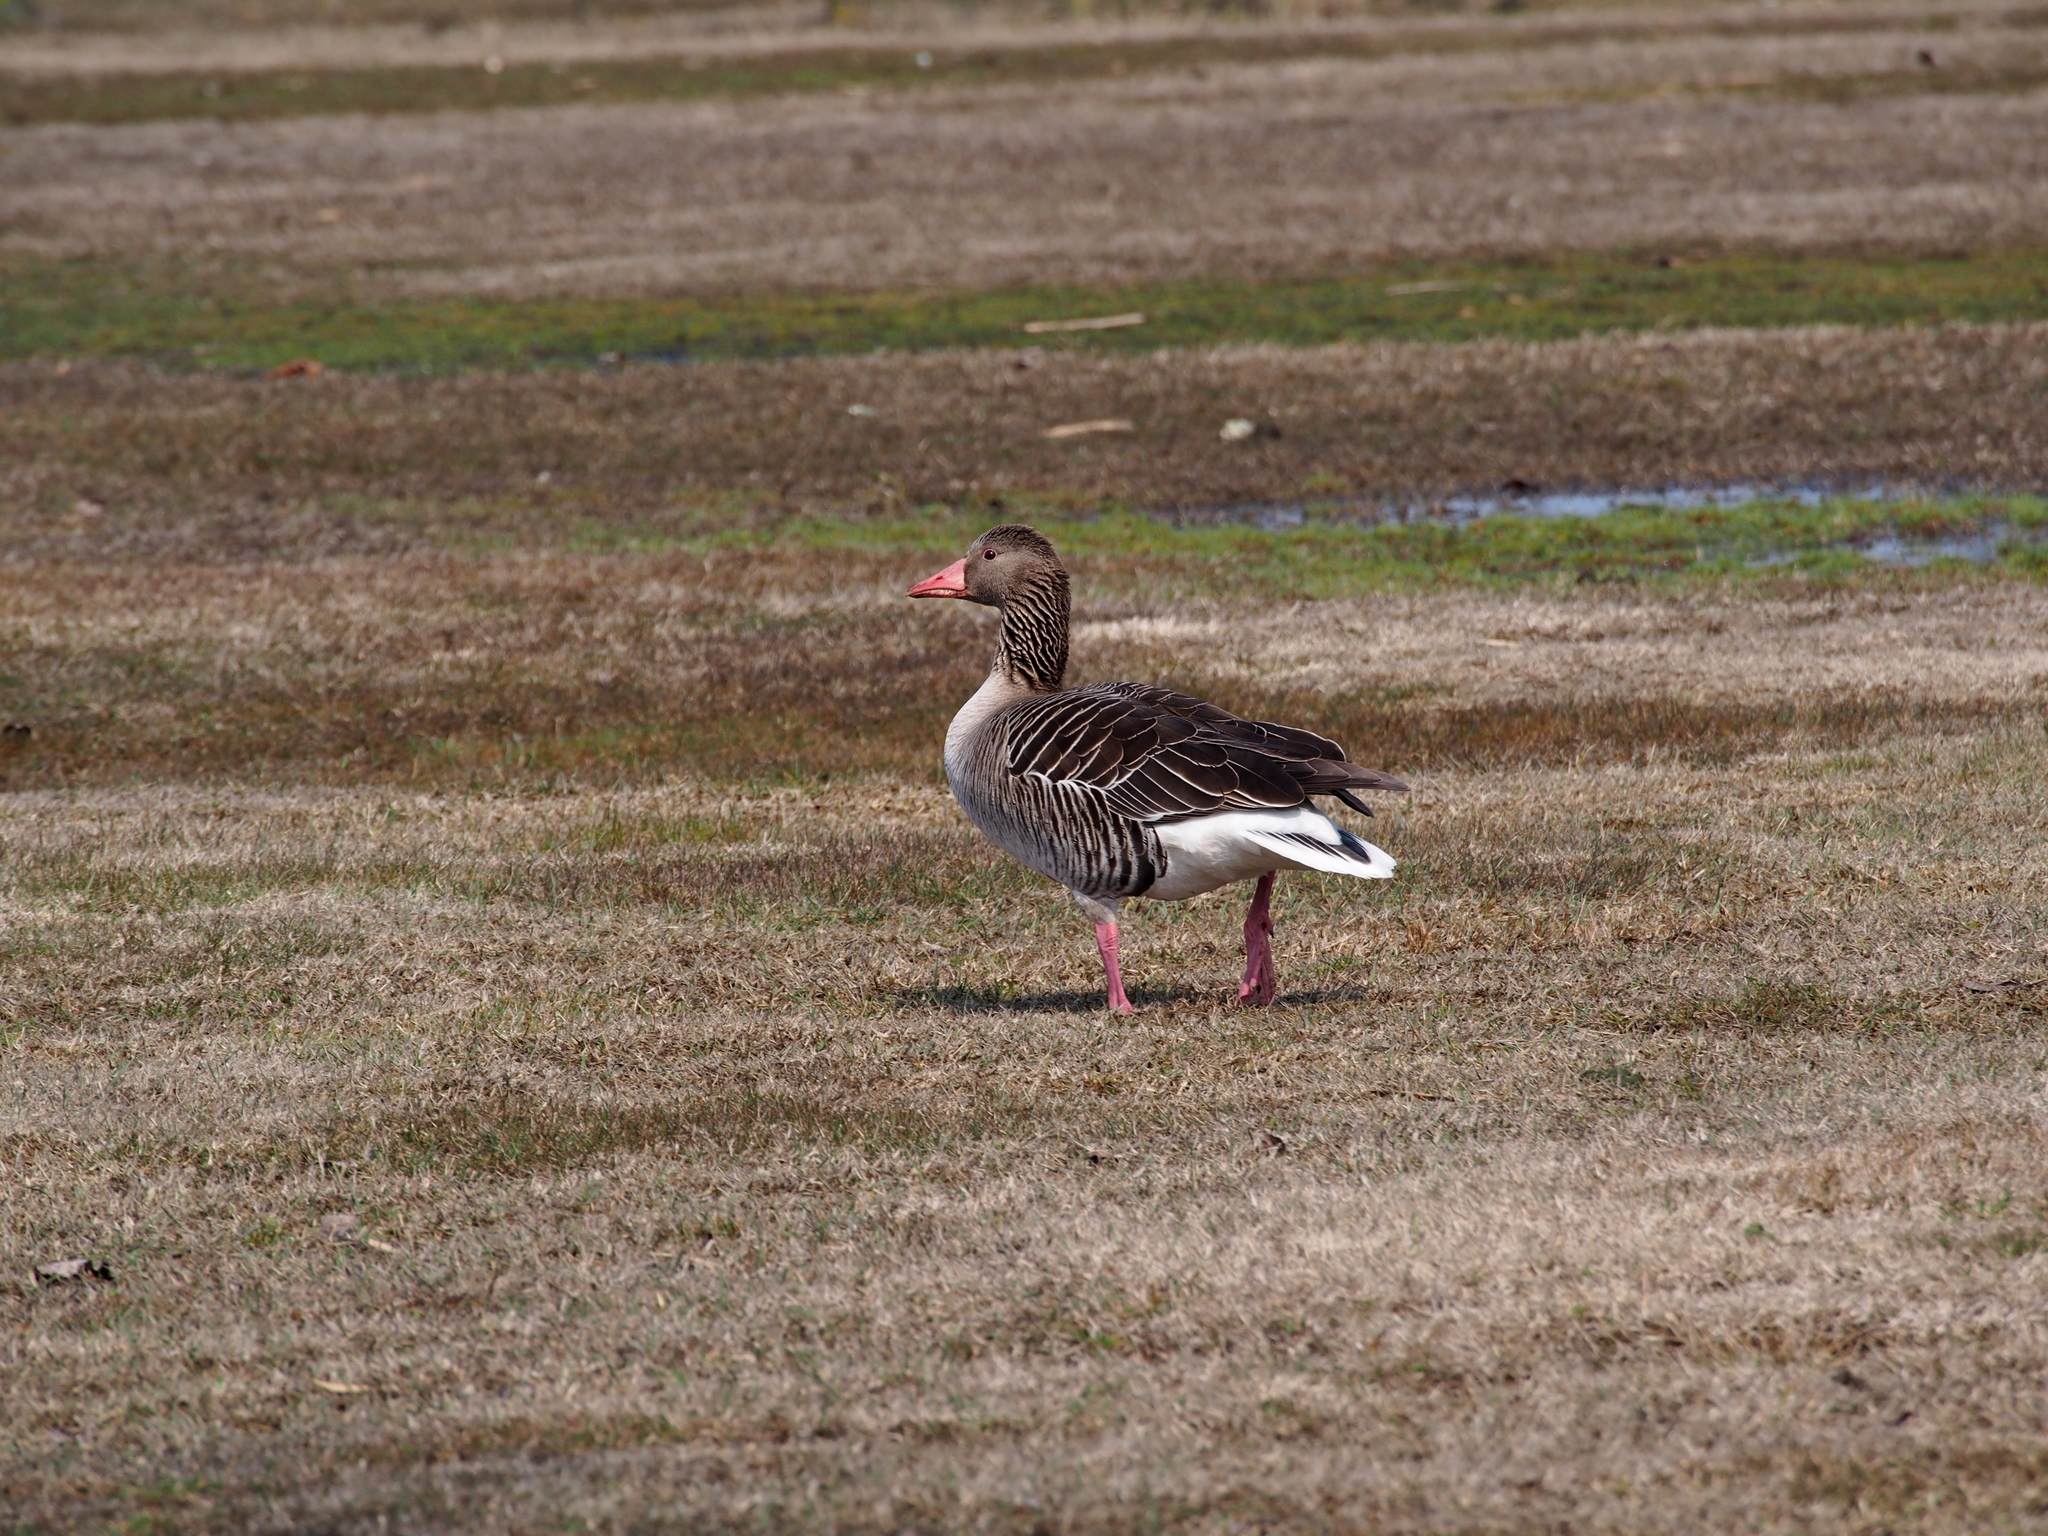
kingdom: Animalia
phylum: Chordata
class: Aves
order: Anseriformes
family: Anatidae
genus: Anser
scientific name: Anser anser
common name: Greylag goose
